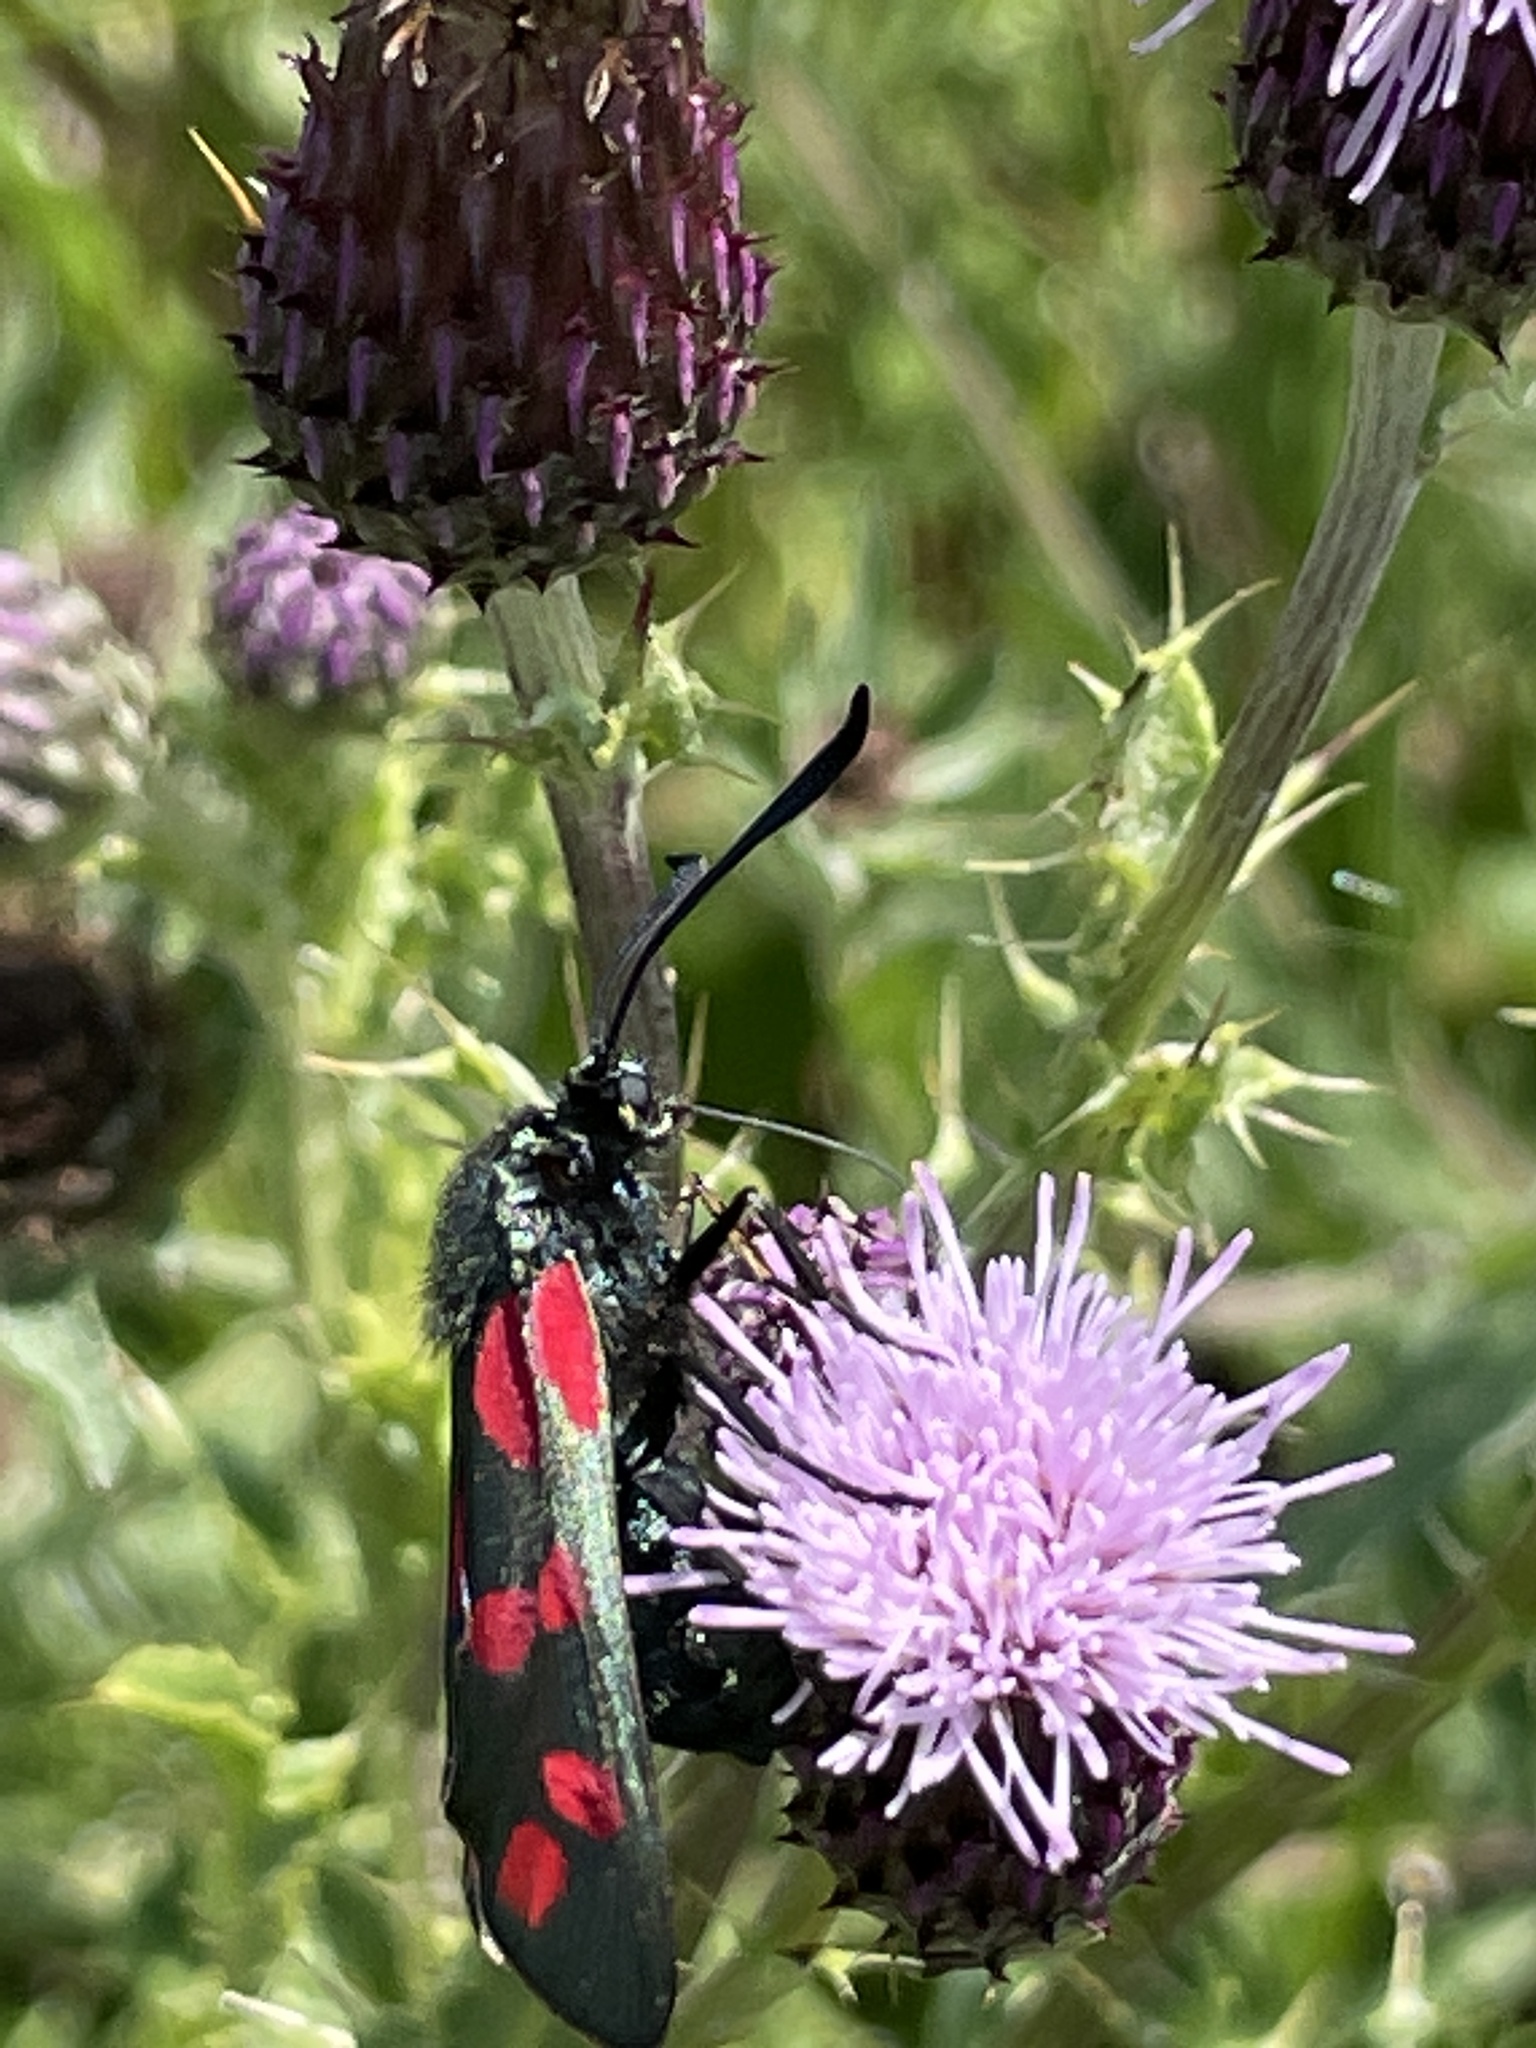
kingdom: Animalia
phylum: Arthropoda
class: Insecta
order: Lepidoptera
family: Zygaenidae
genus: Zygaena
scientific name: Zygaena filipendulae
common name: Six-spot burnet
